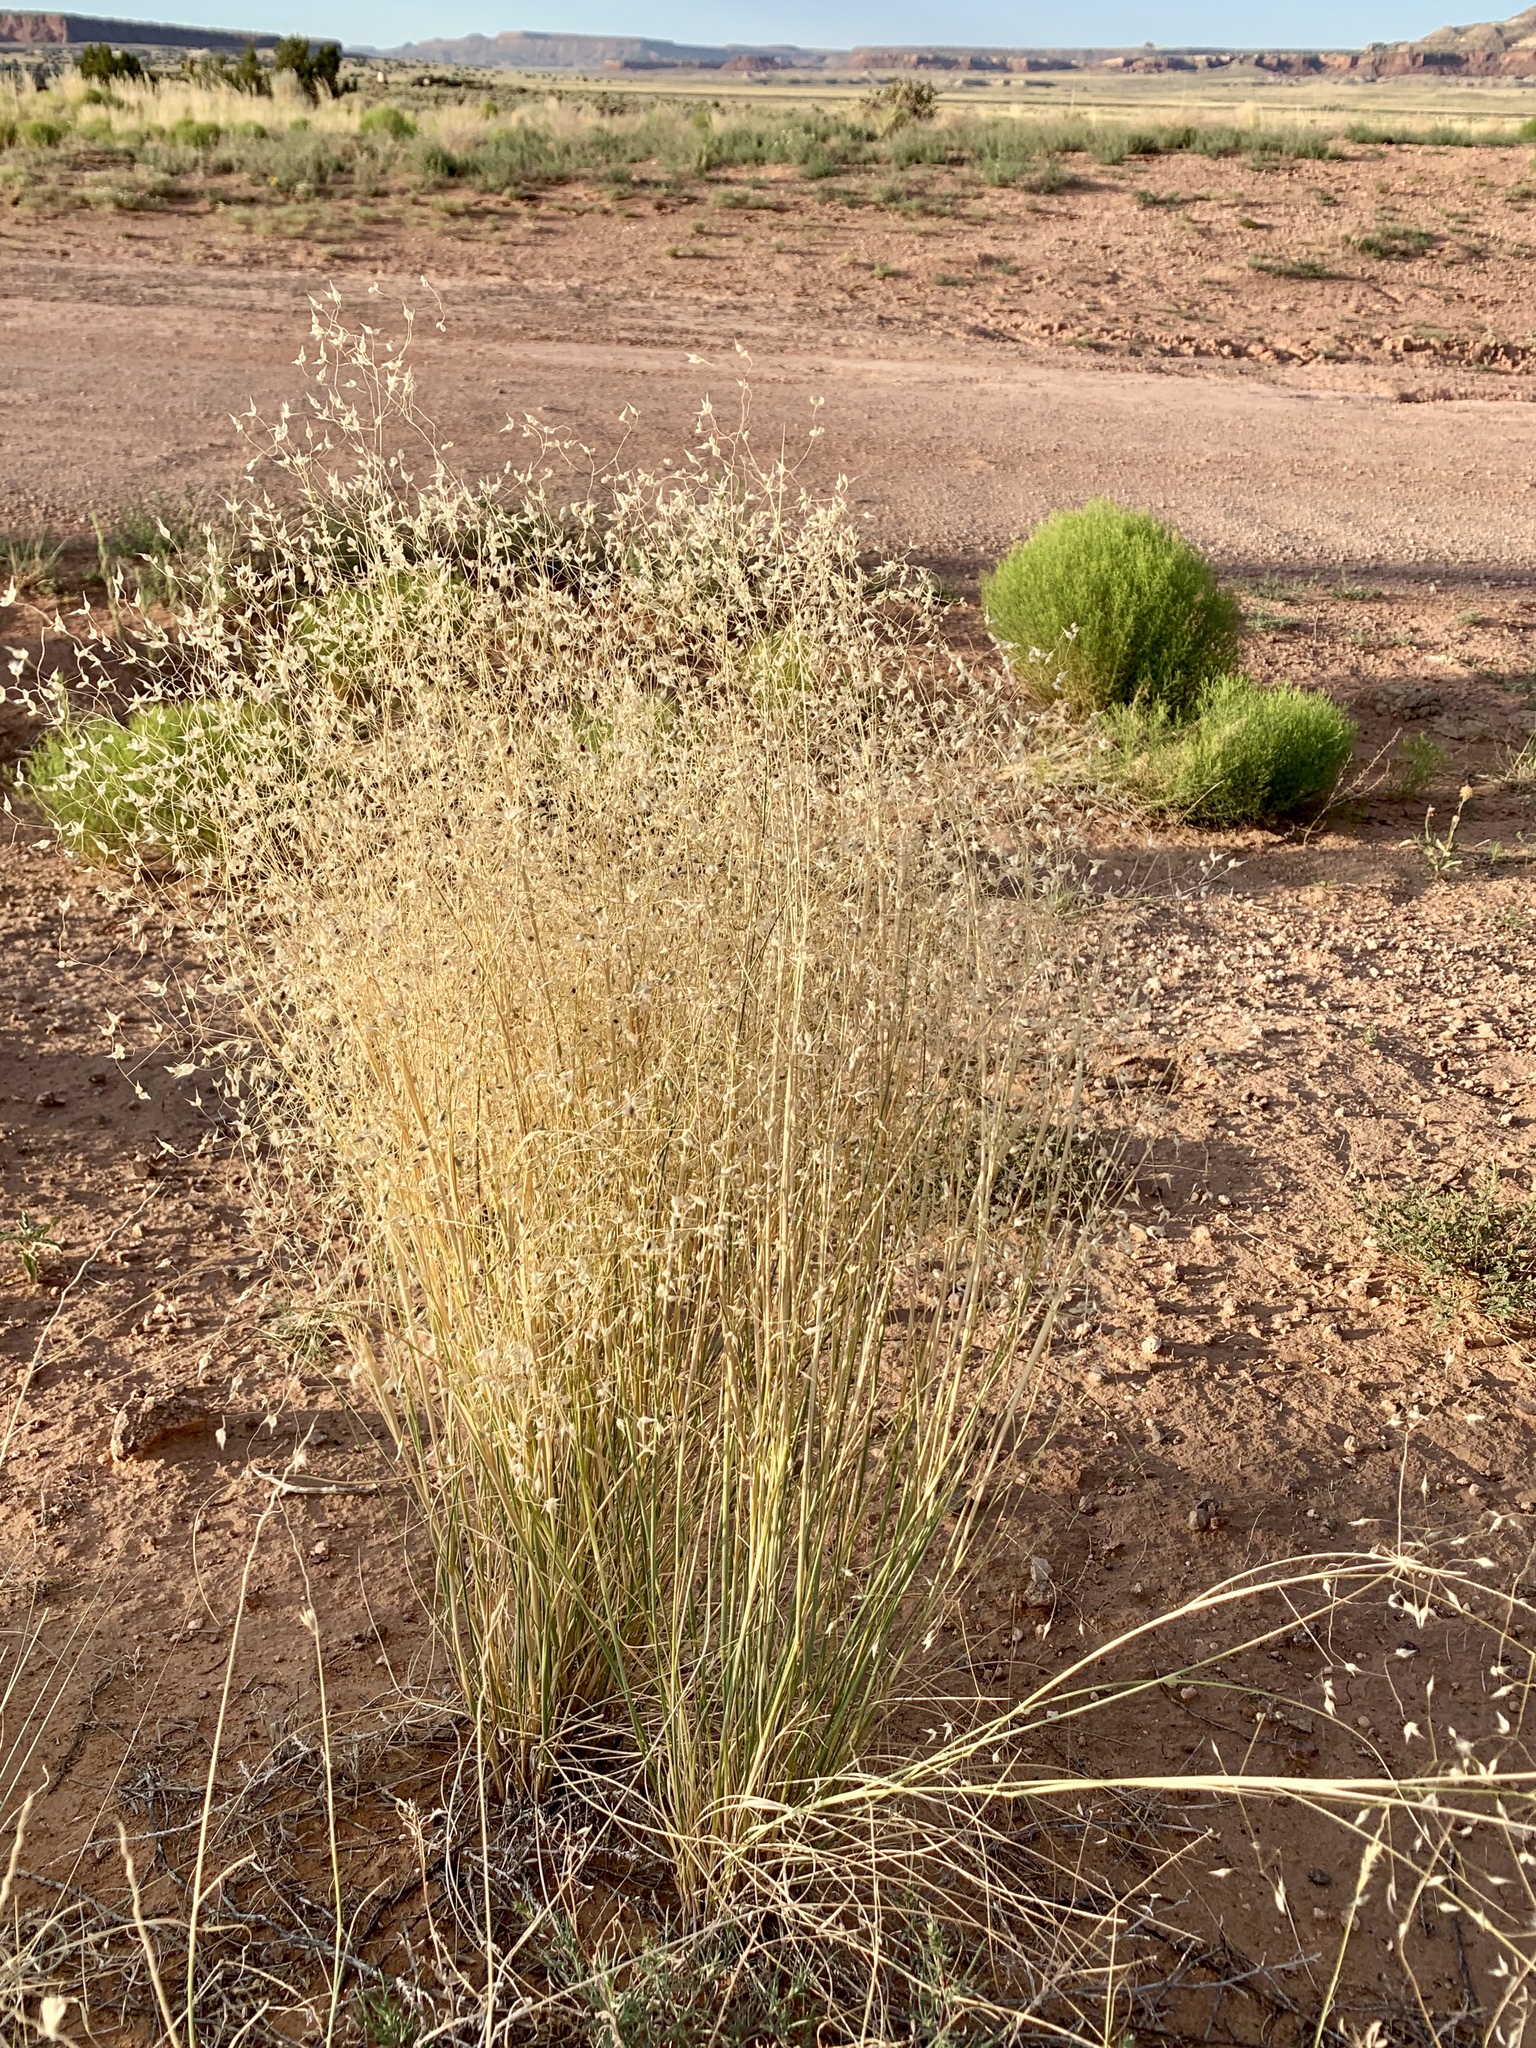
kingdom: Plantae
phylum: Tracheophyta
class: Liliopsida
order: Poales
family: Poaceae
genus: Eriocoma
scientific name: Eriocoma hymenoides
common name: Indian mountain ricegrass
